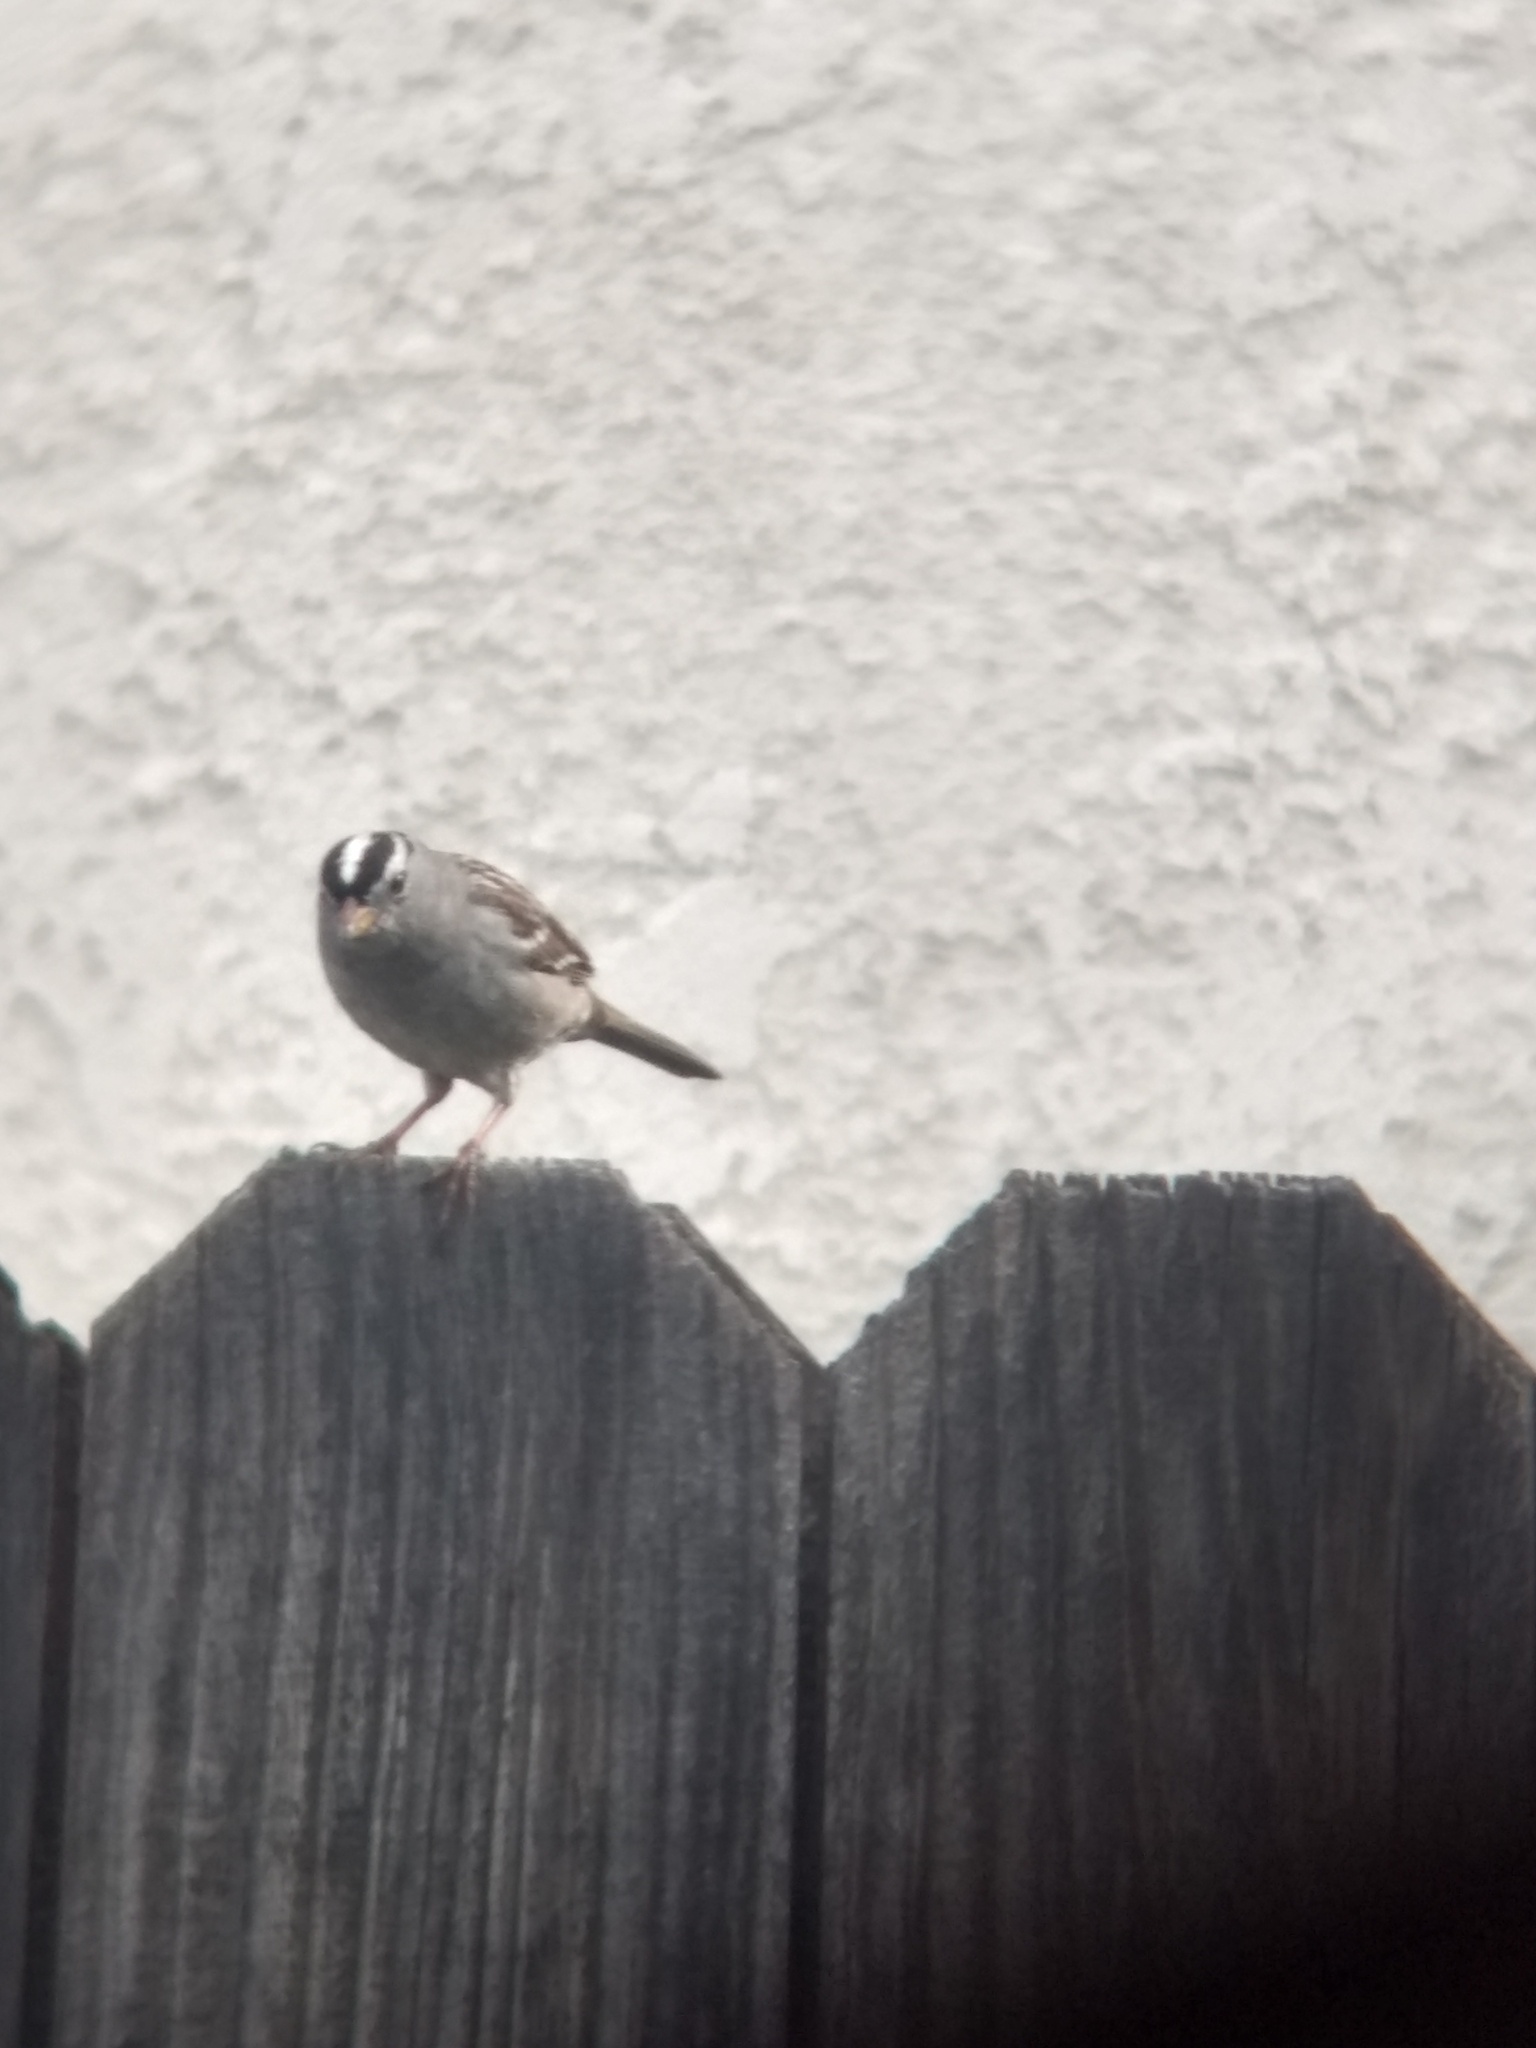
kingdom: Animalia
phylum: Chordata
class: Aves
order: Passeriformes
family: Passerellidae
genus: Zonotrichia
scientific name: Zonotrichia leucophrys
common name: White-crowned sparrow
